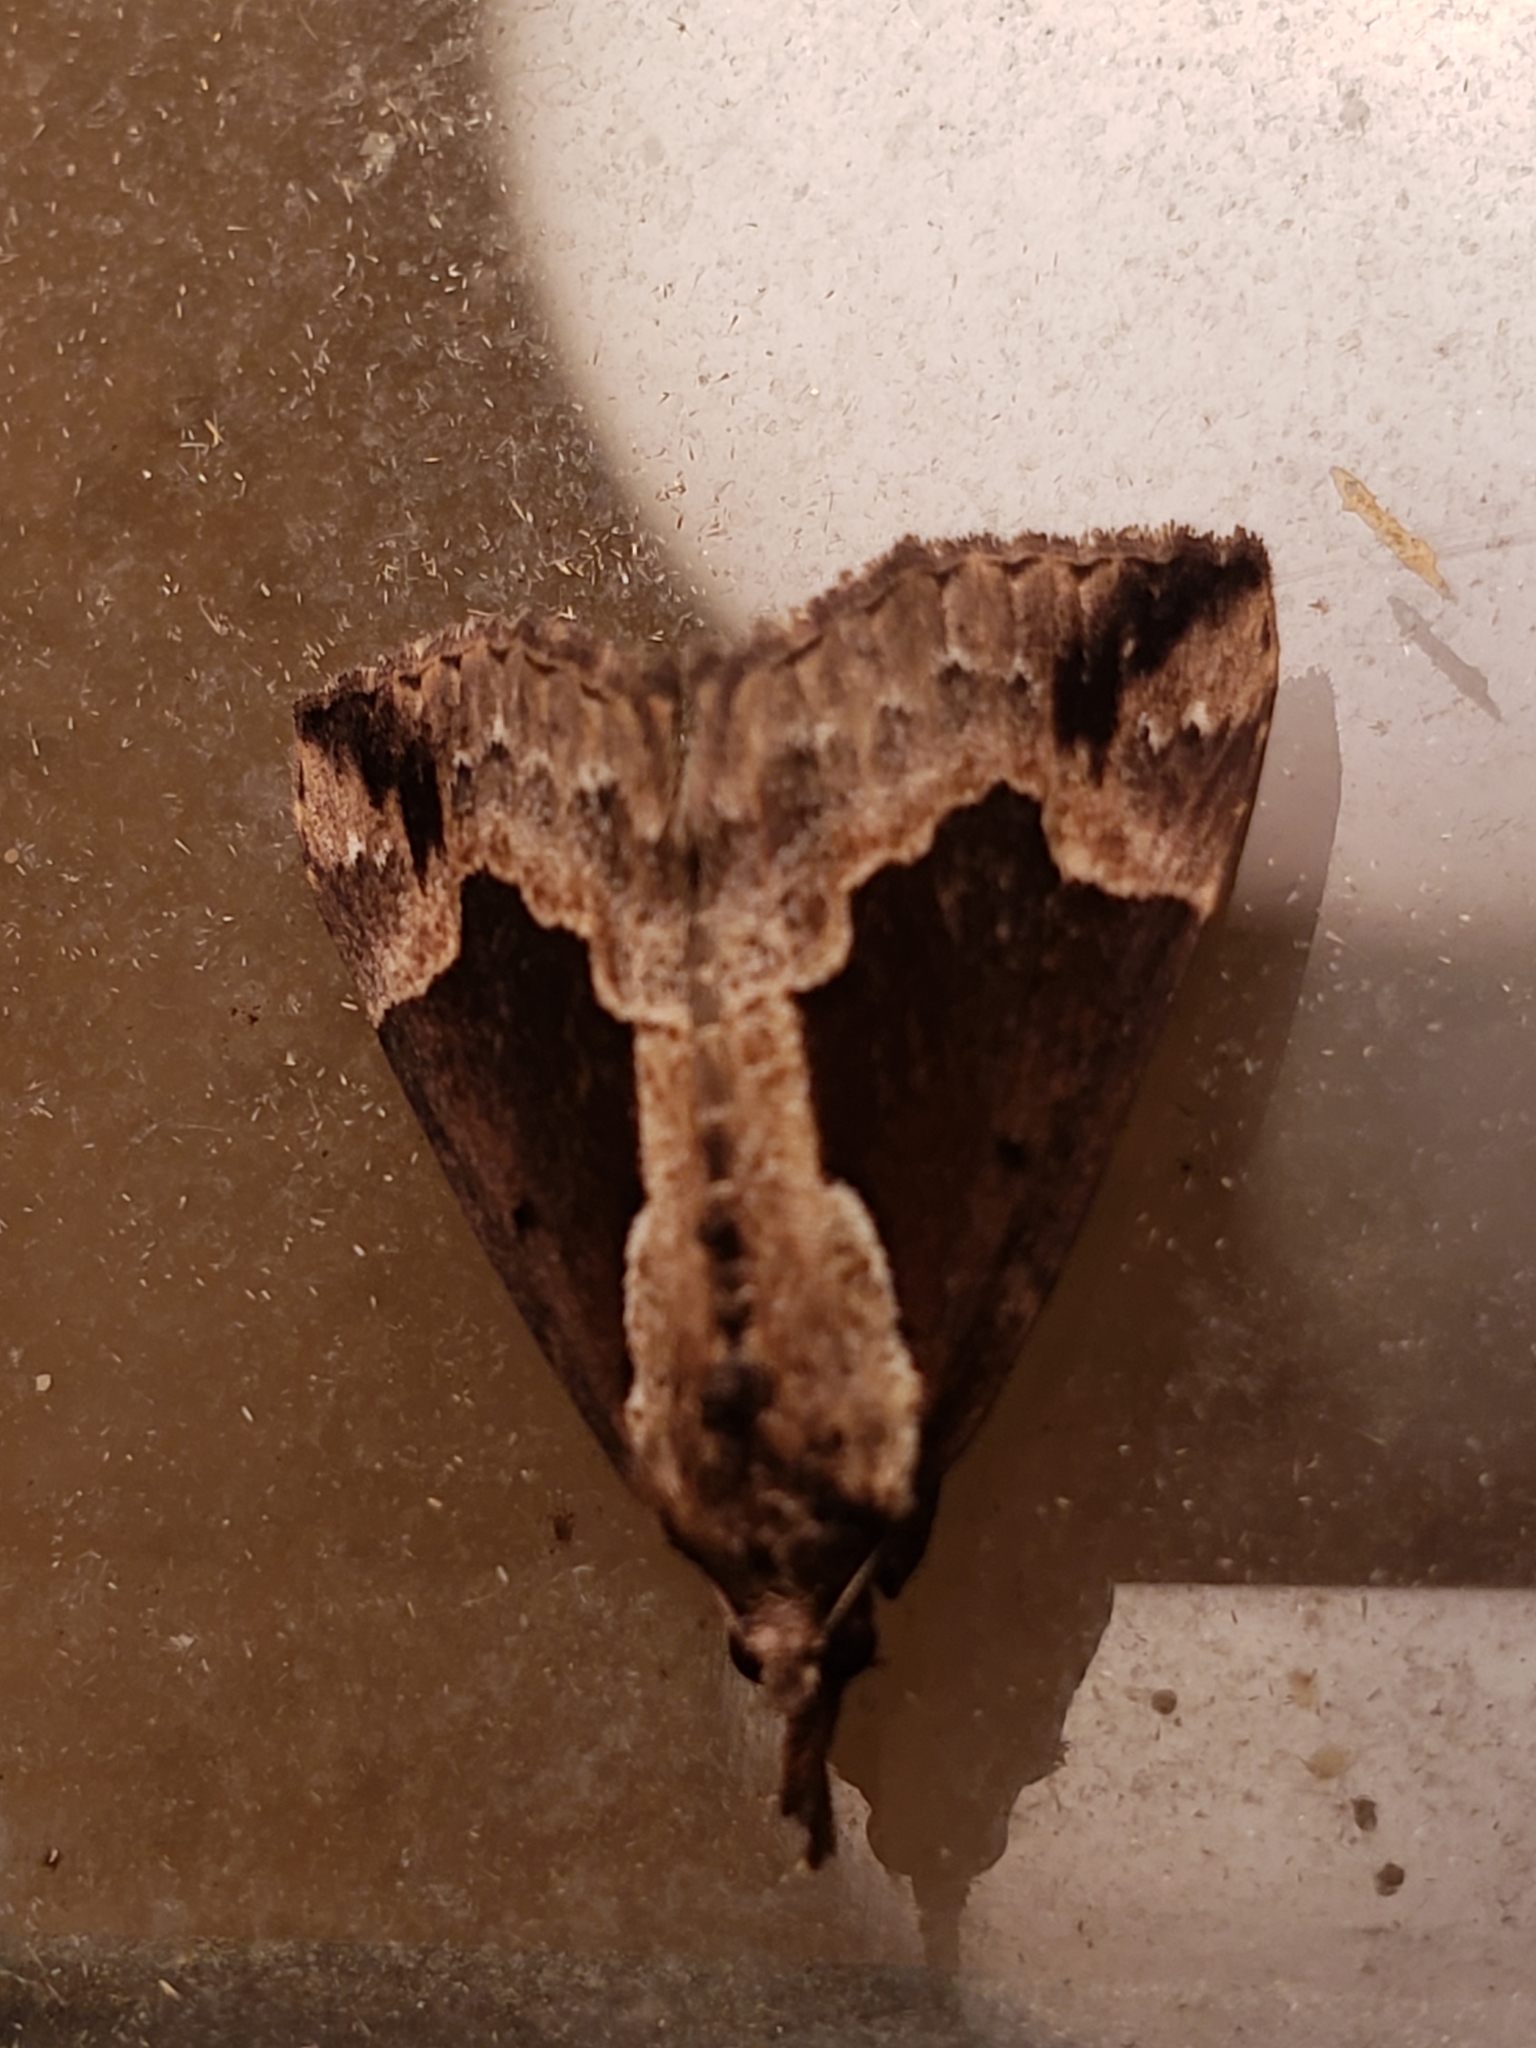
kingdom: Animalia
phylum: Arthropoda
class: Insecta
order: Lepidoptera
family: Erebidae
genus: Hypena
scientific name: Hypena baltimoralis
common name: Baltimore snout
